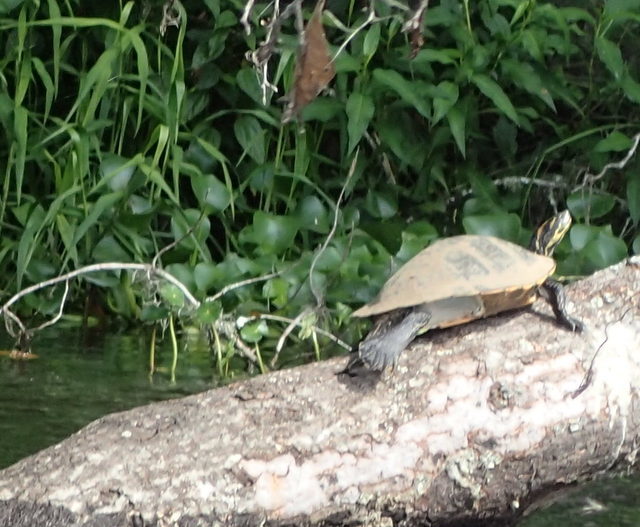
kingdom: Animalia
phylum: Chordata
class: Testudines
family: Emydidae
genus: Pseudemys
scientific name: Pseudemys concinna
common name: Eastern river cooter
